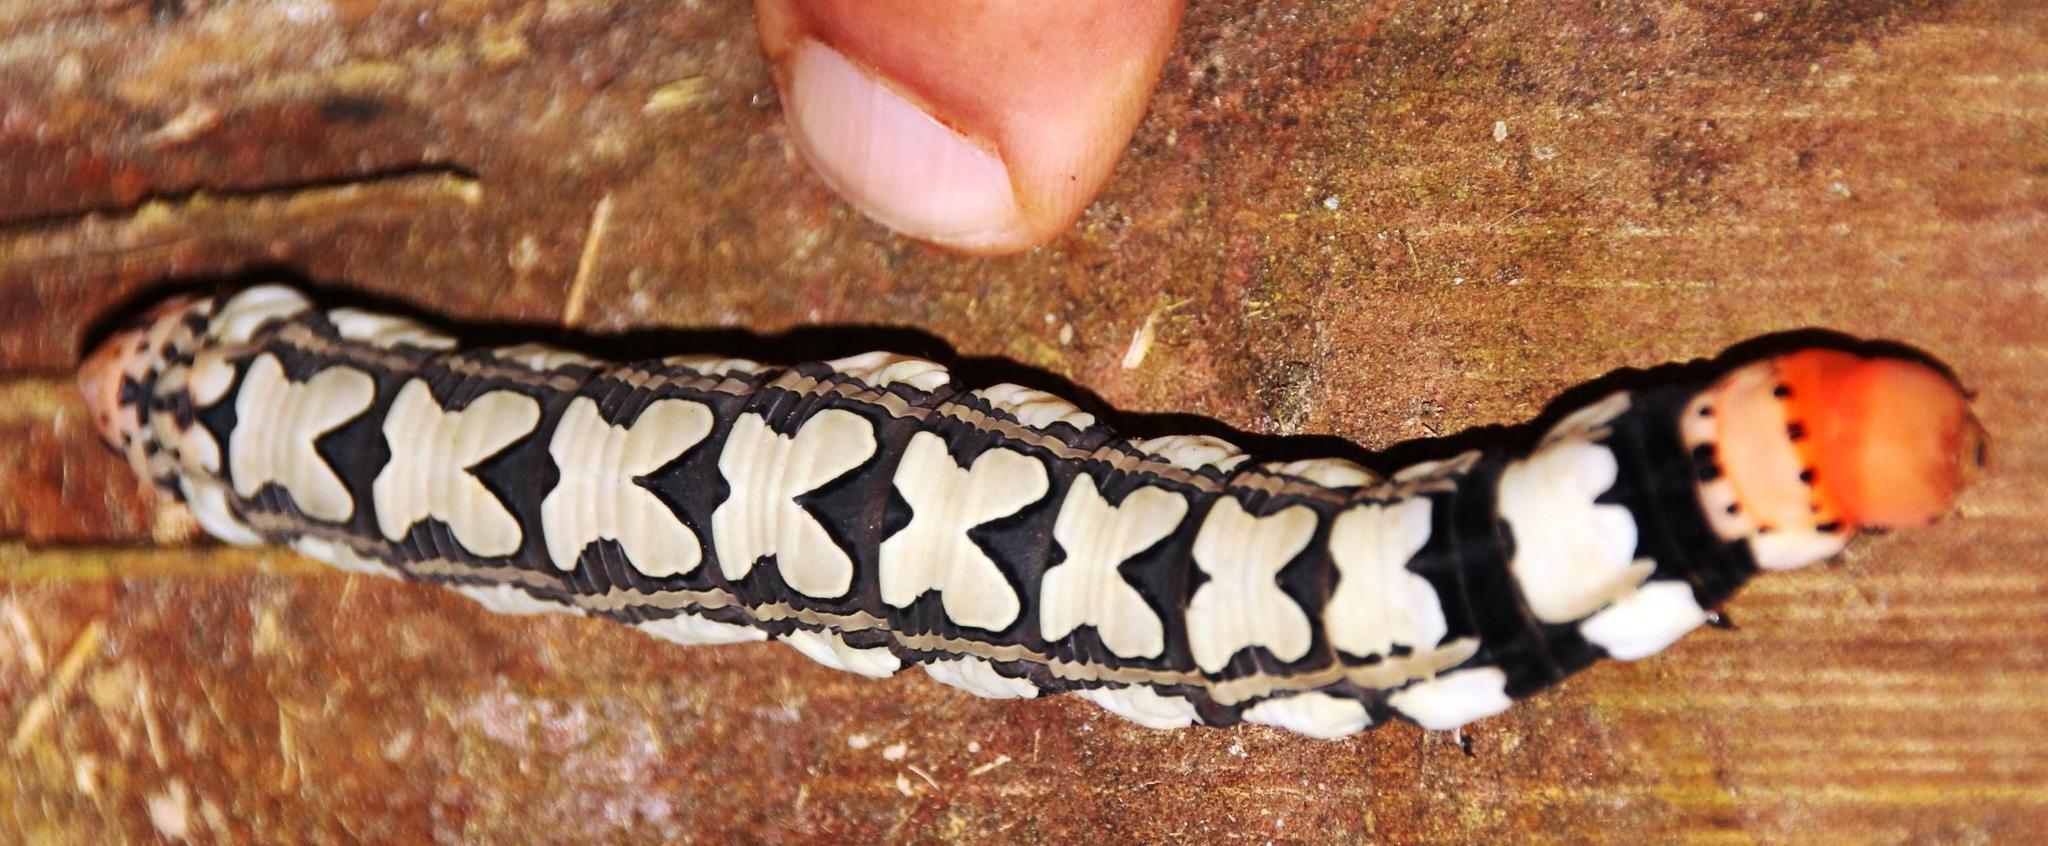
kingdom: Animalia
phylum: Arthropoda
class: Insecta
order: Lepidoptera
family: Sphingidae
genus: Isognathus
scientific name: Isognathus leachii
